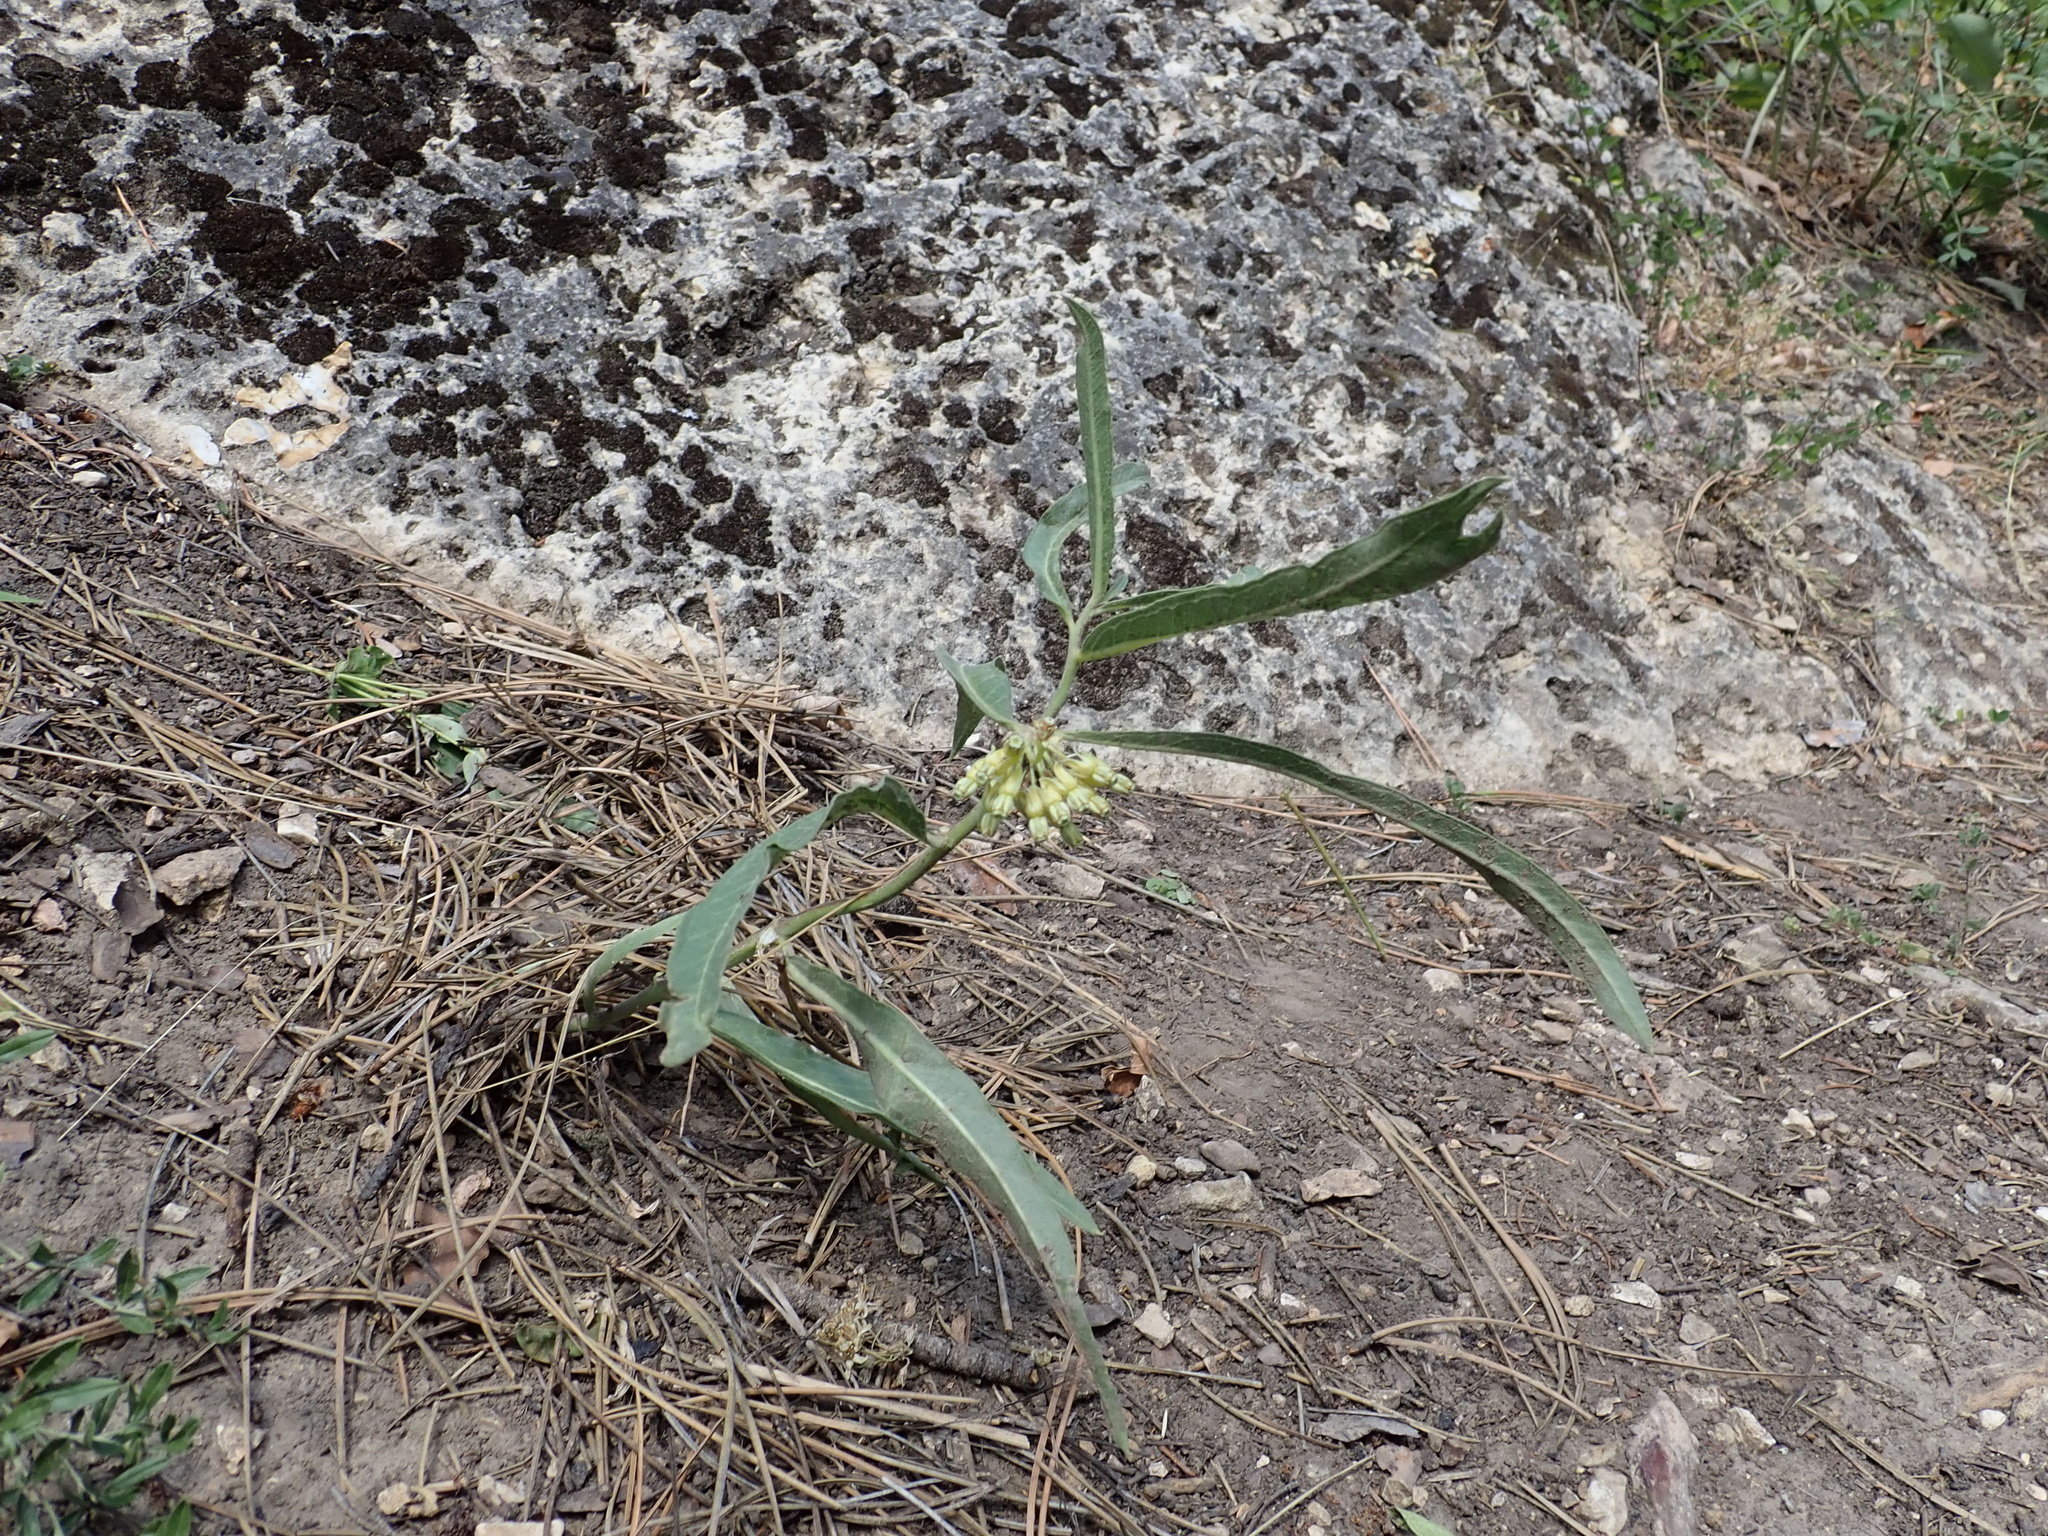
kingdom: Plantae
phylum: Tracheophyta
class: Magnoliopsida
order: Gentianales
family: Apocynaceae
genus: Asclepias
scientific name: Asclepias viridiflora
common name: Green comet milkweed
